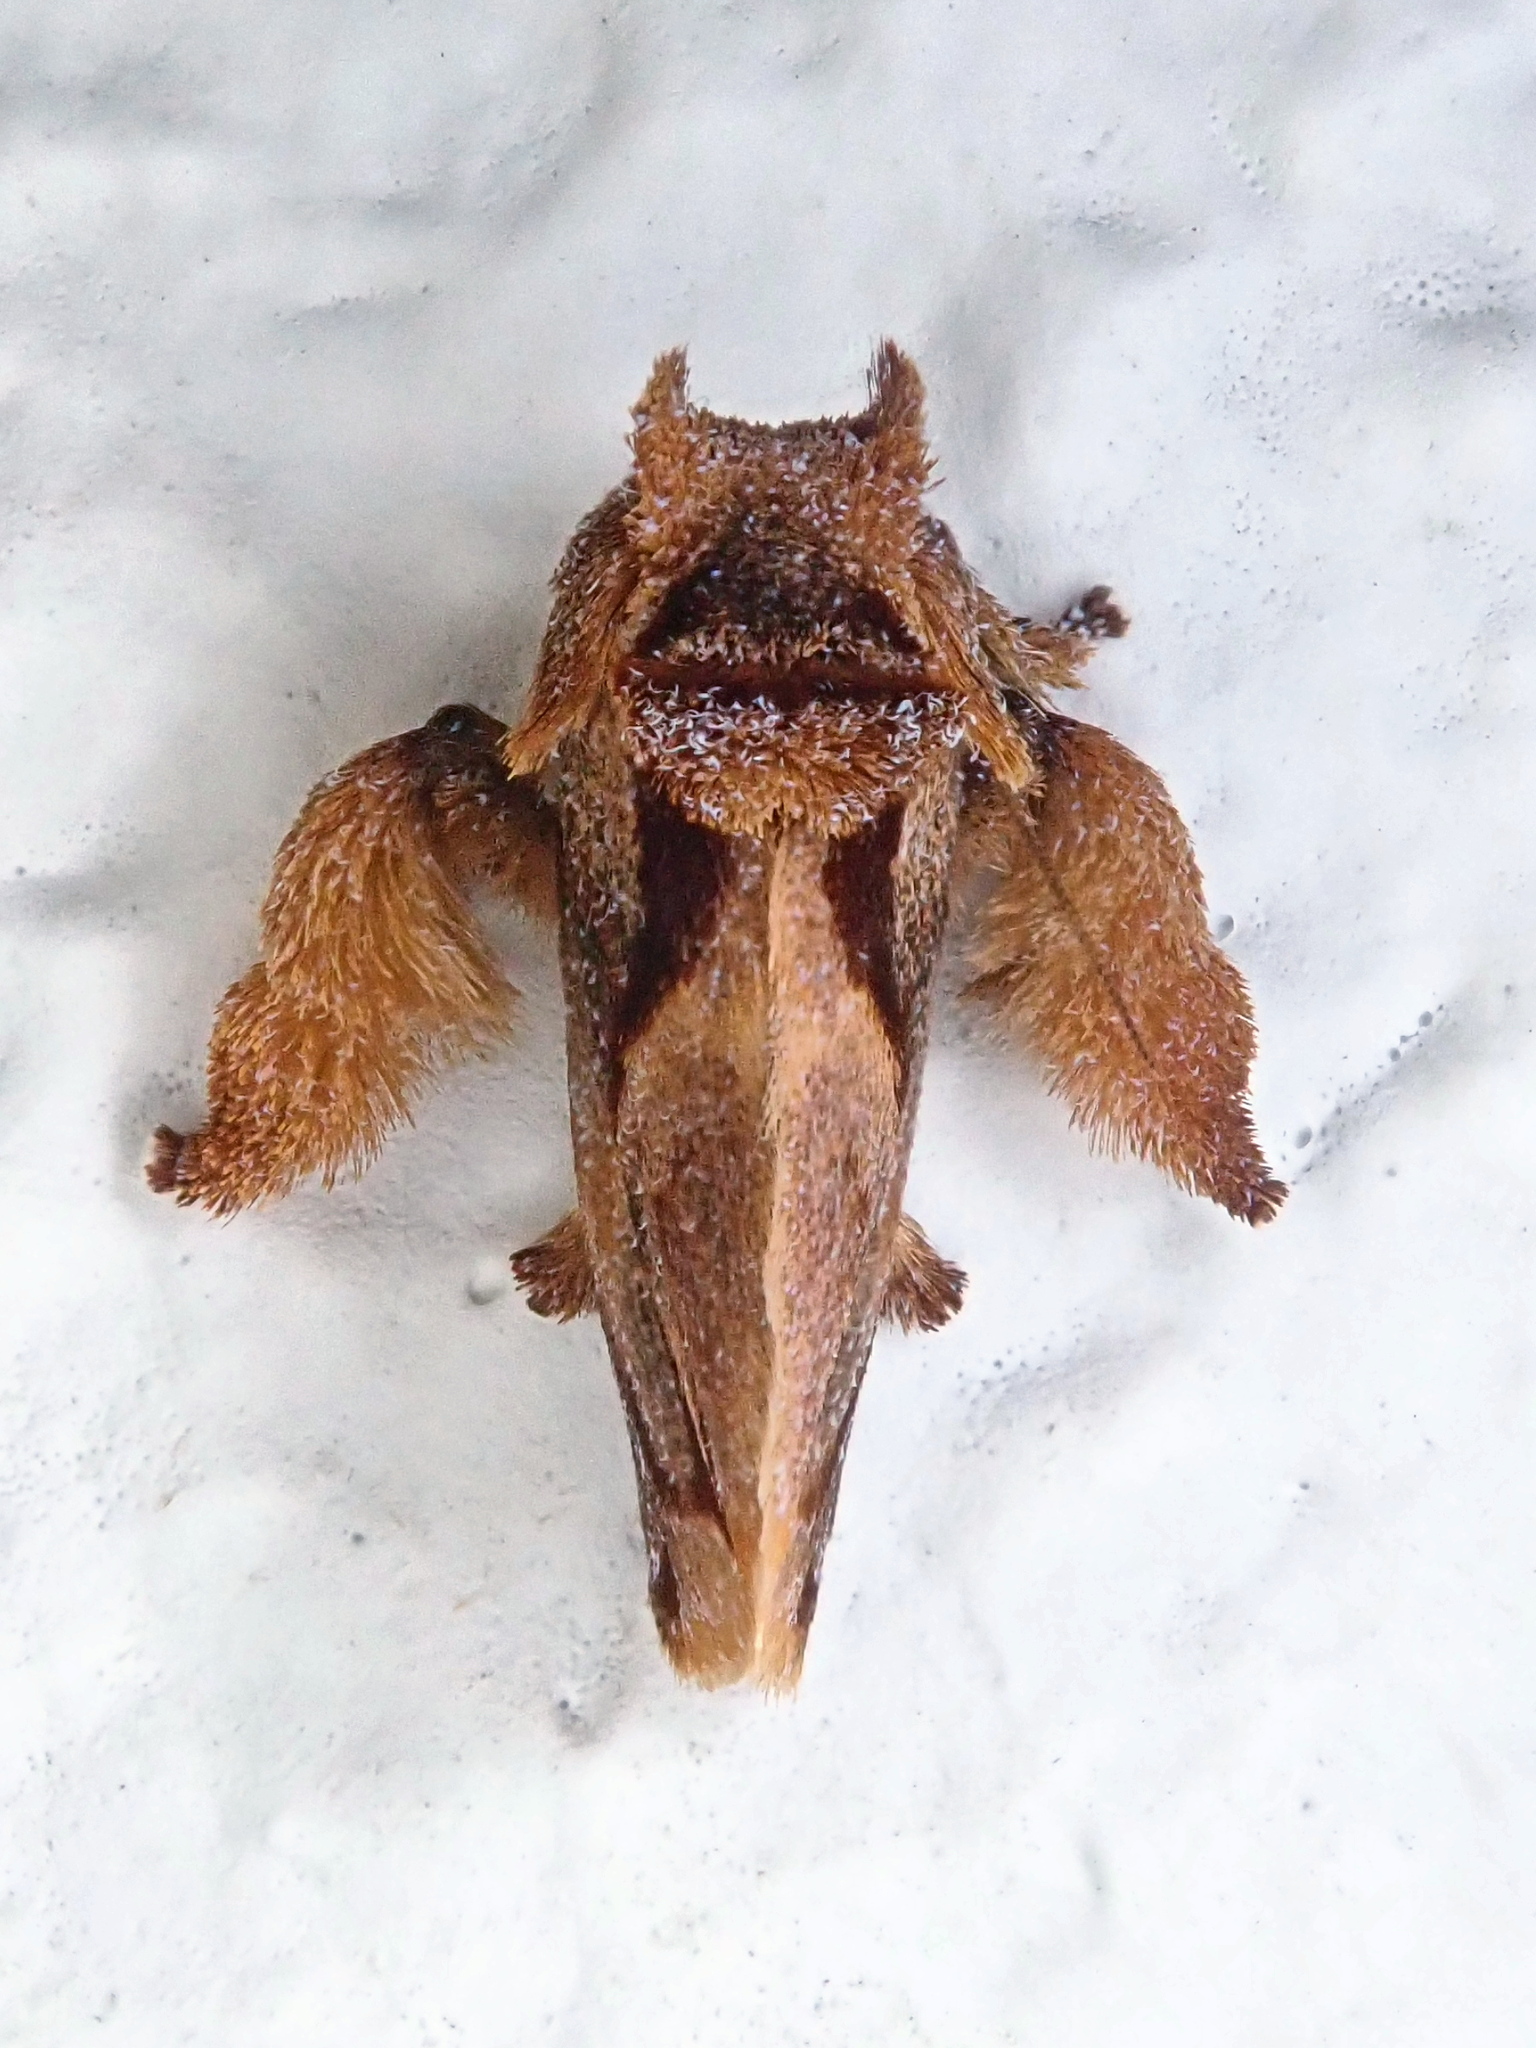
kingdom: Animalia
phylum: Arthropoda
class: Insecta
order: Lepidoptera
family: Limacodidae
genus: Euphobetron
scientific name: Euphobetron natadoides
